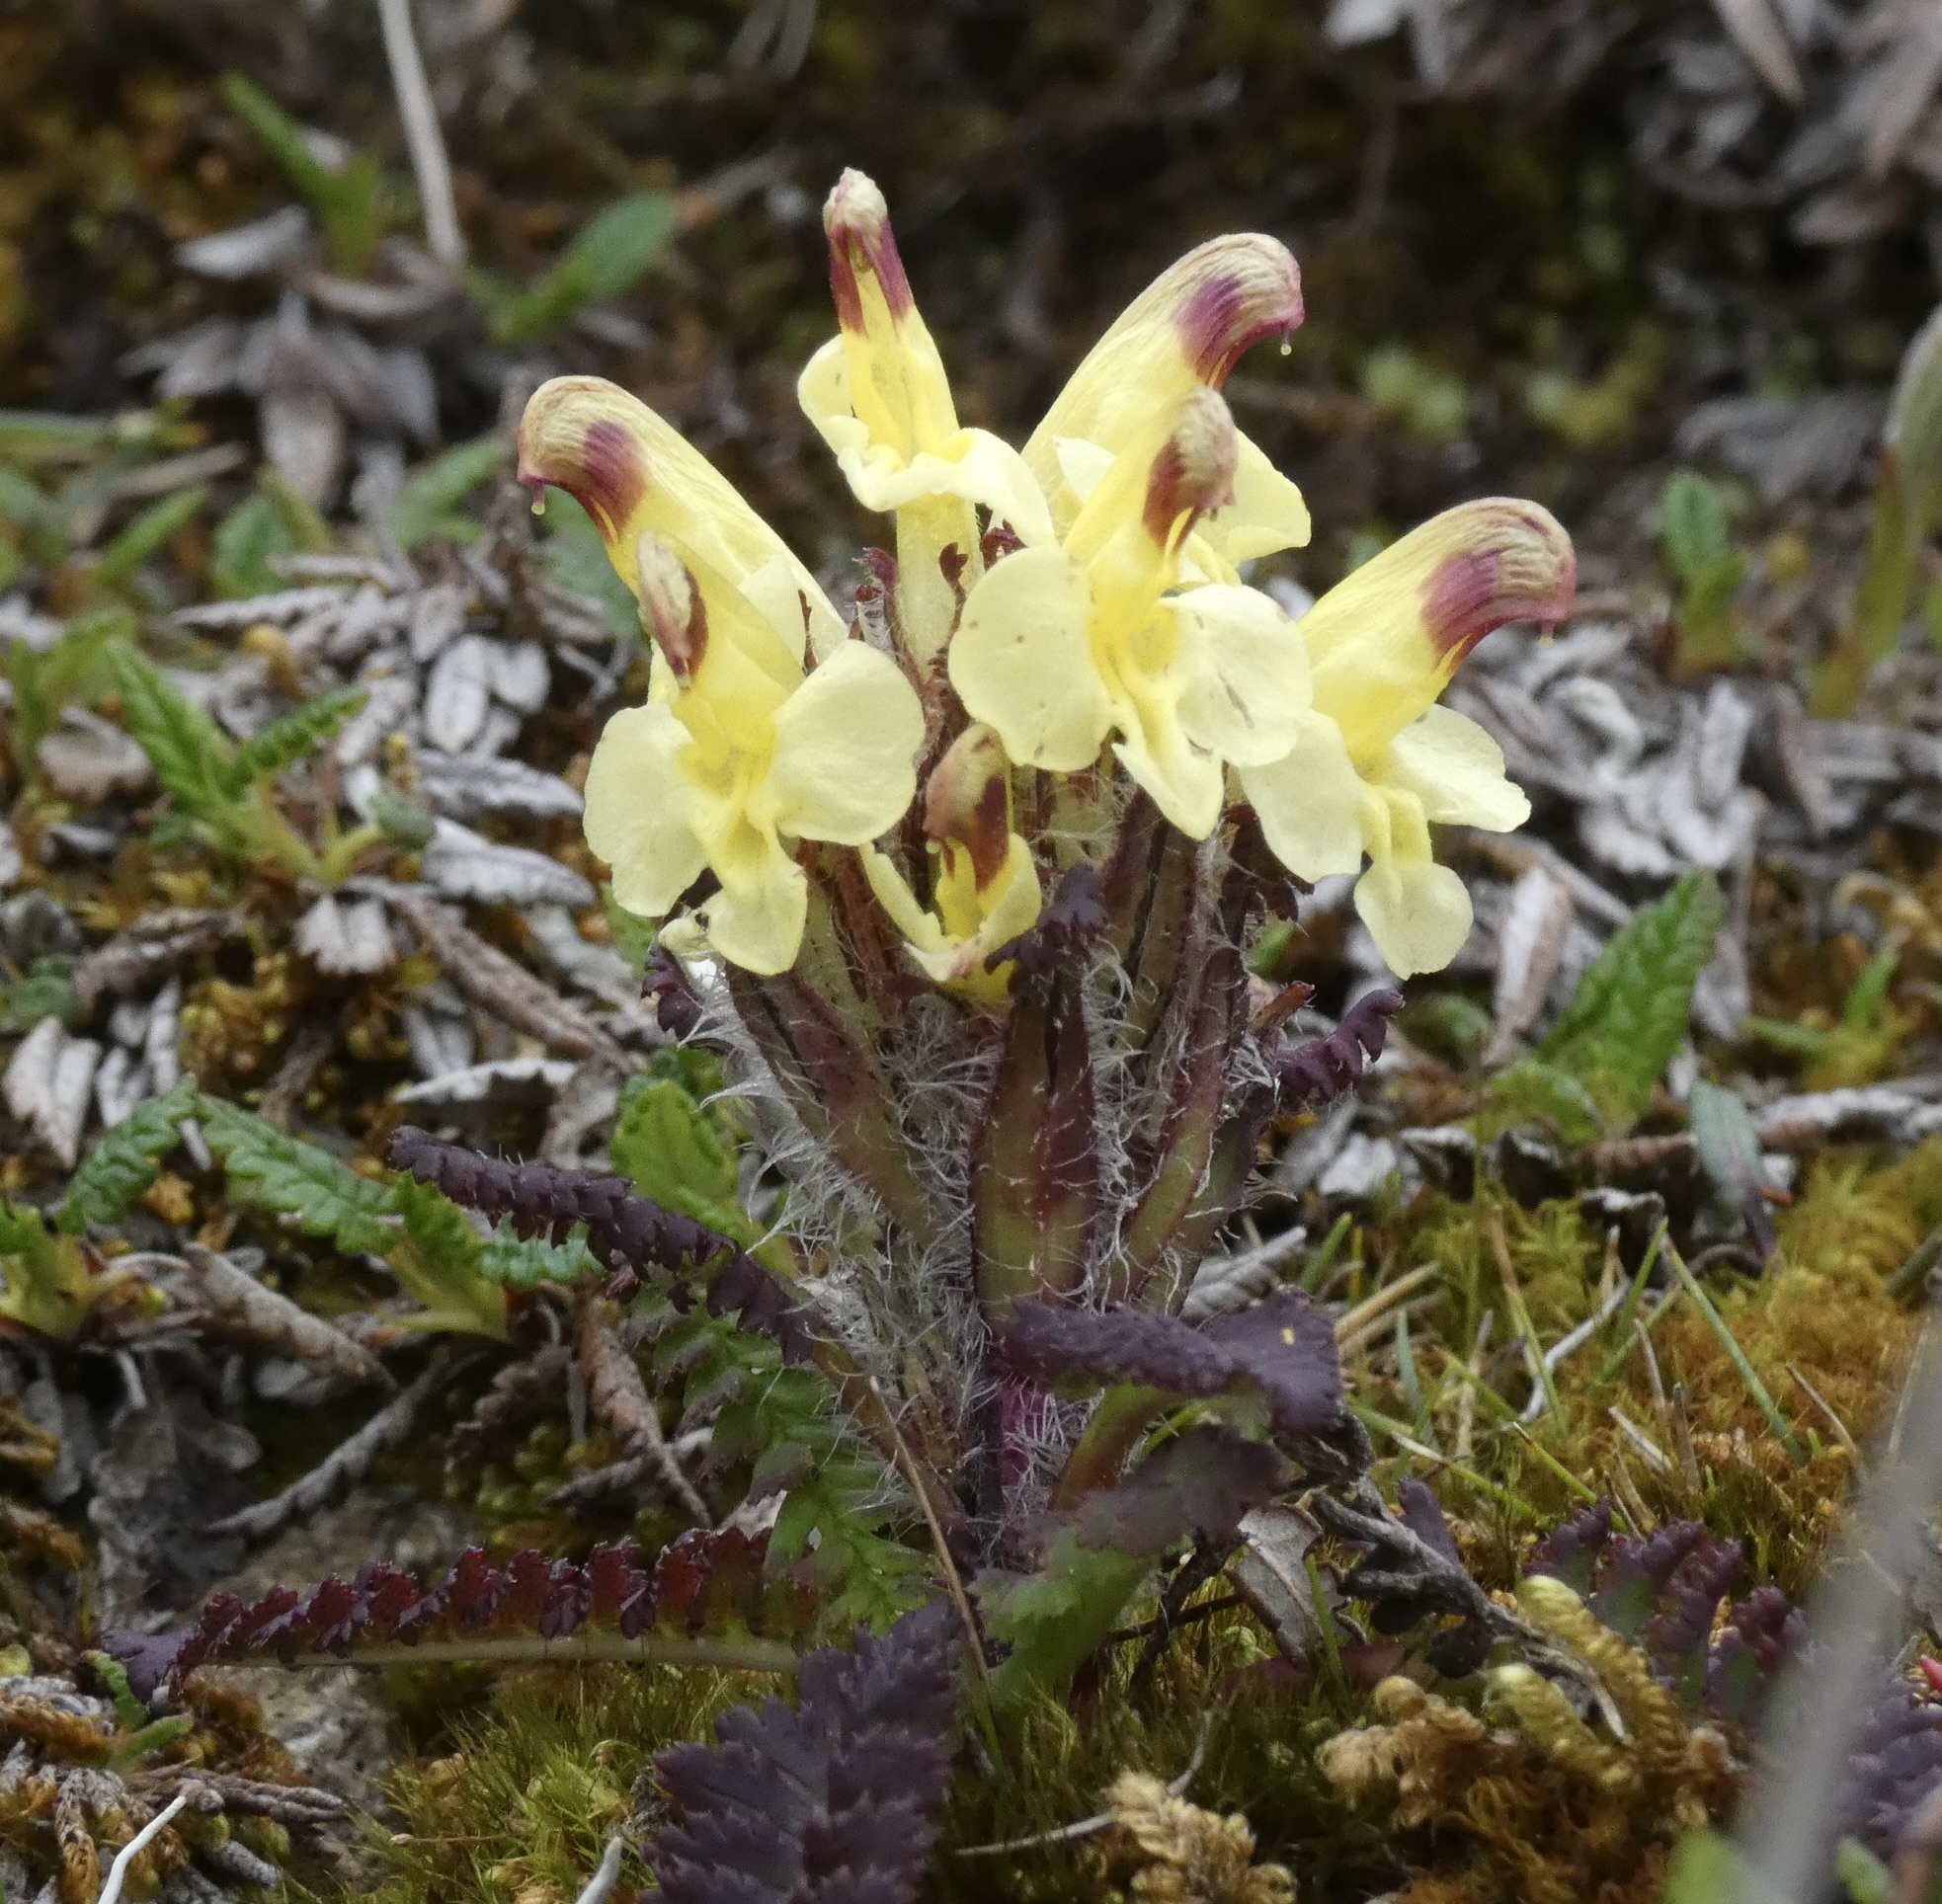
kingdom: Plantae
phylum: Tracheophyta
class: Magnoliopsida
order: Lamiales
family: Orobanchaceae
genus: Pedicularis
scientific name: Pedicularis oederi
